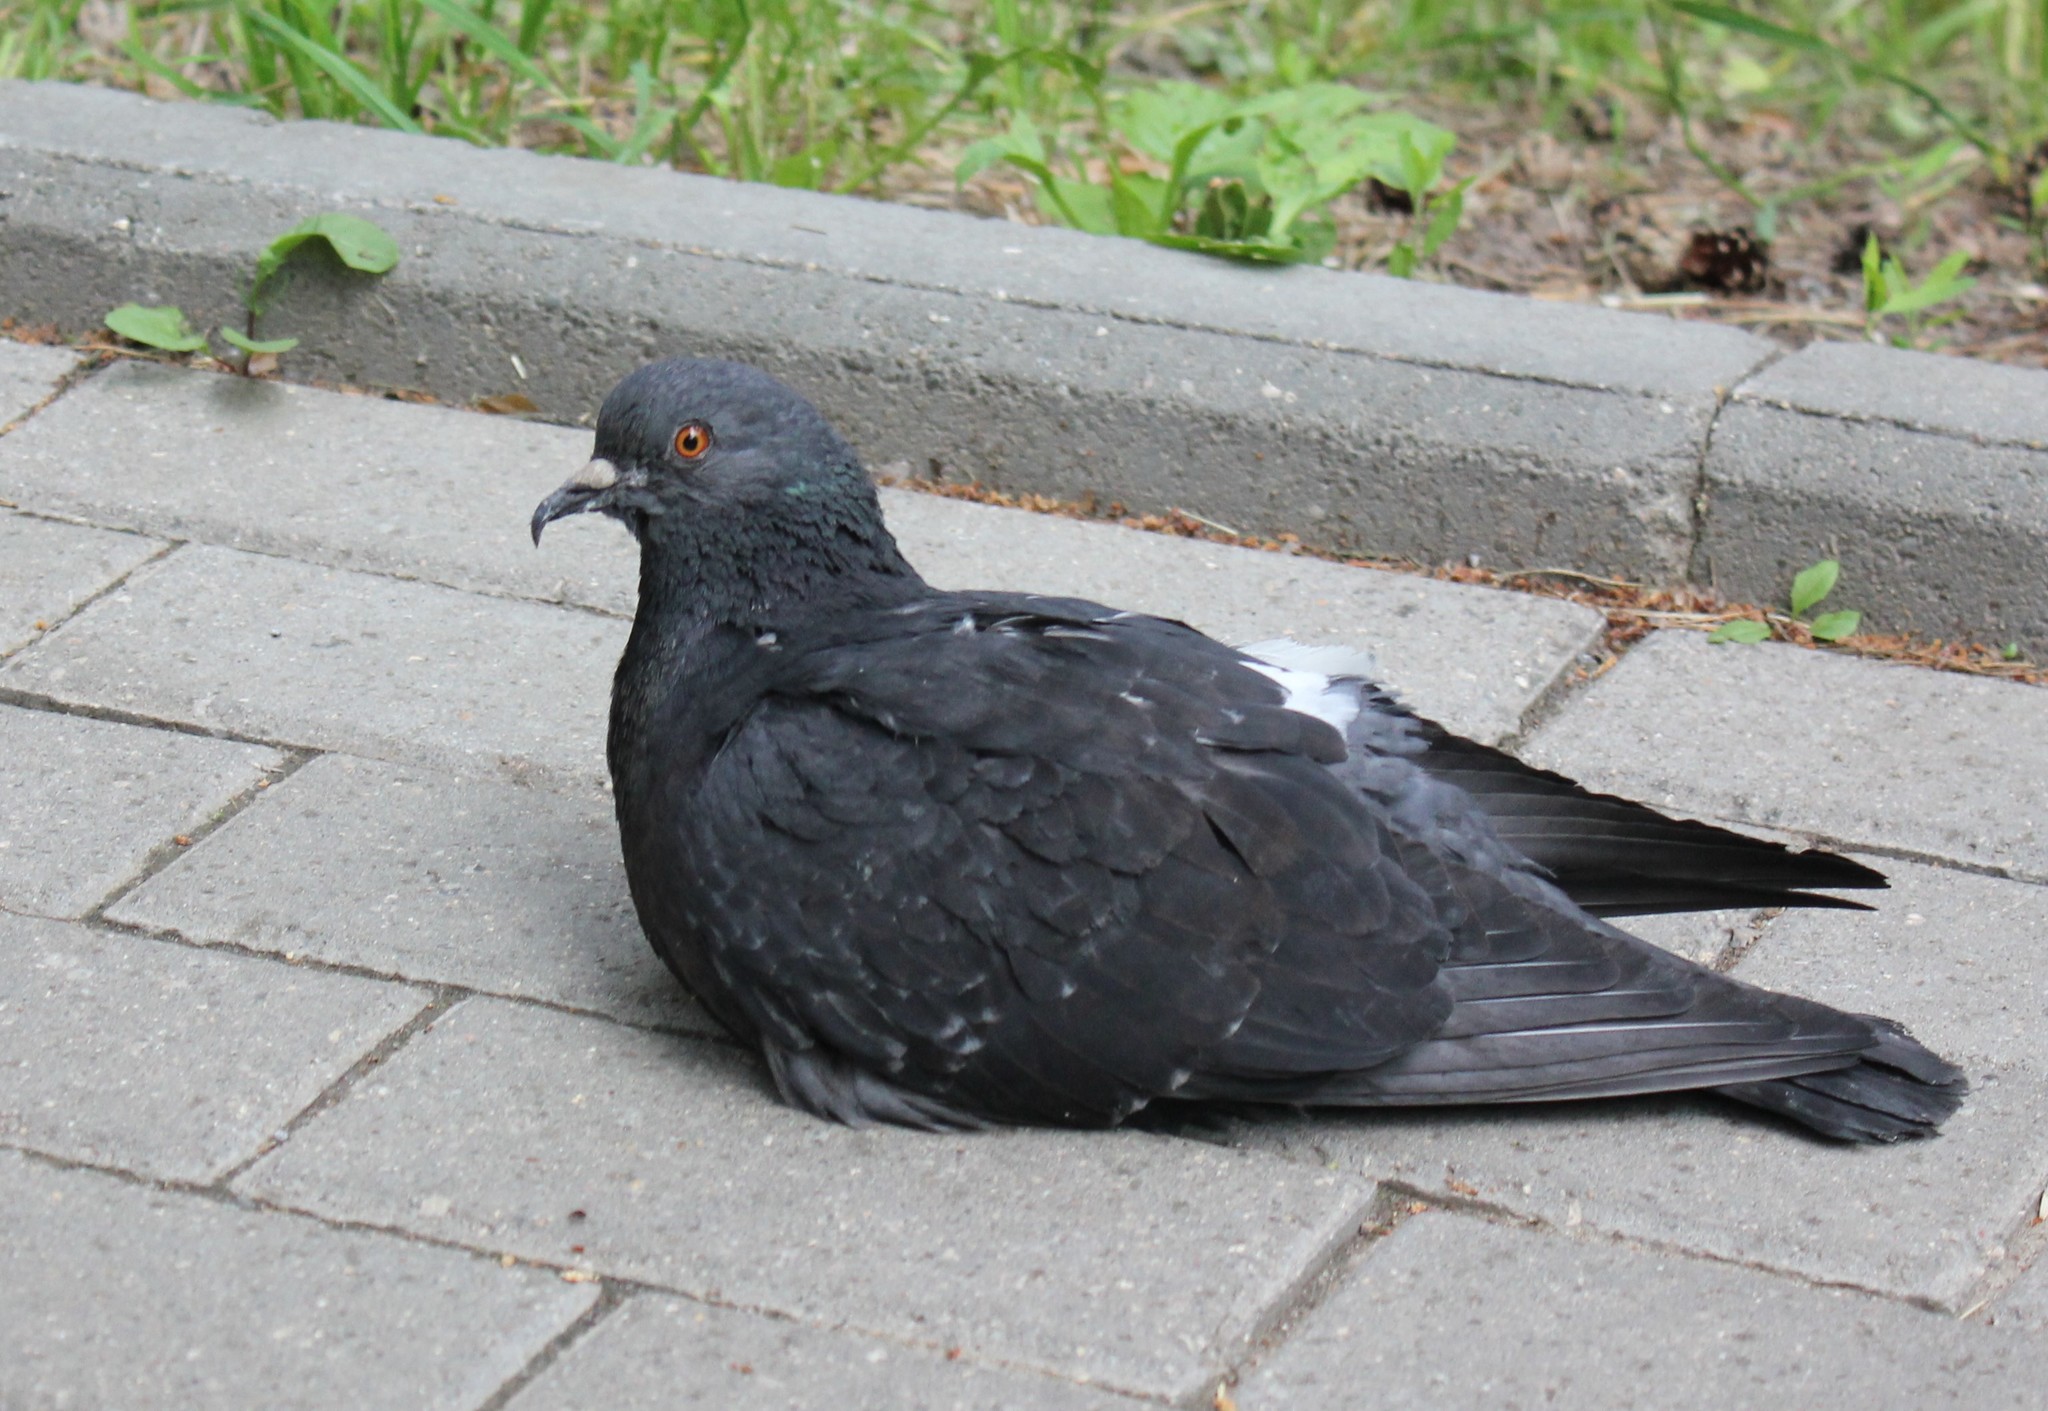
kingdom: Animalia
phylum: Chordata
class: Aves
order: Columbiformes
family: Columbidae
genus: Columba
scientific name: Columba livia
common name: Rock pigeon
